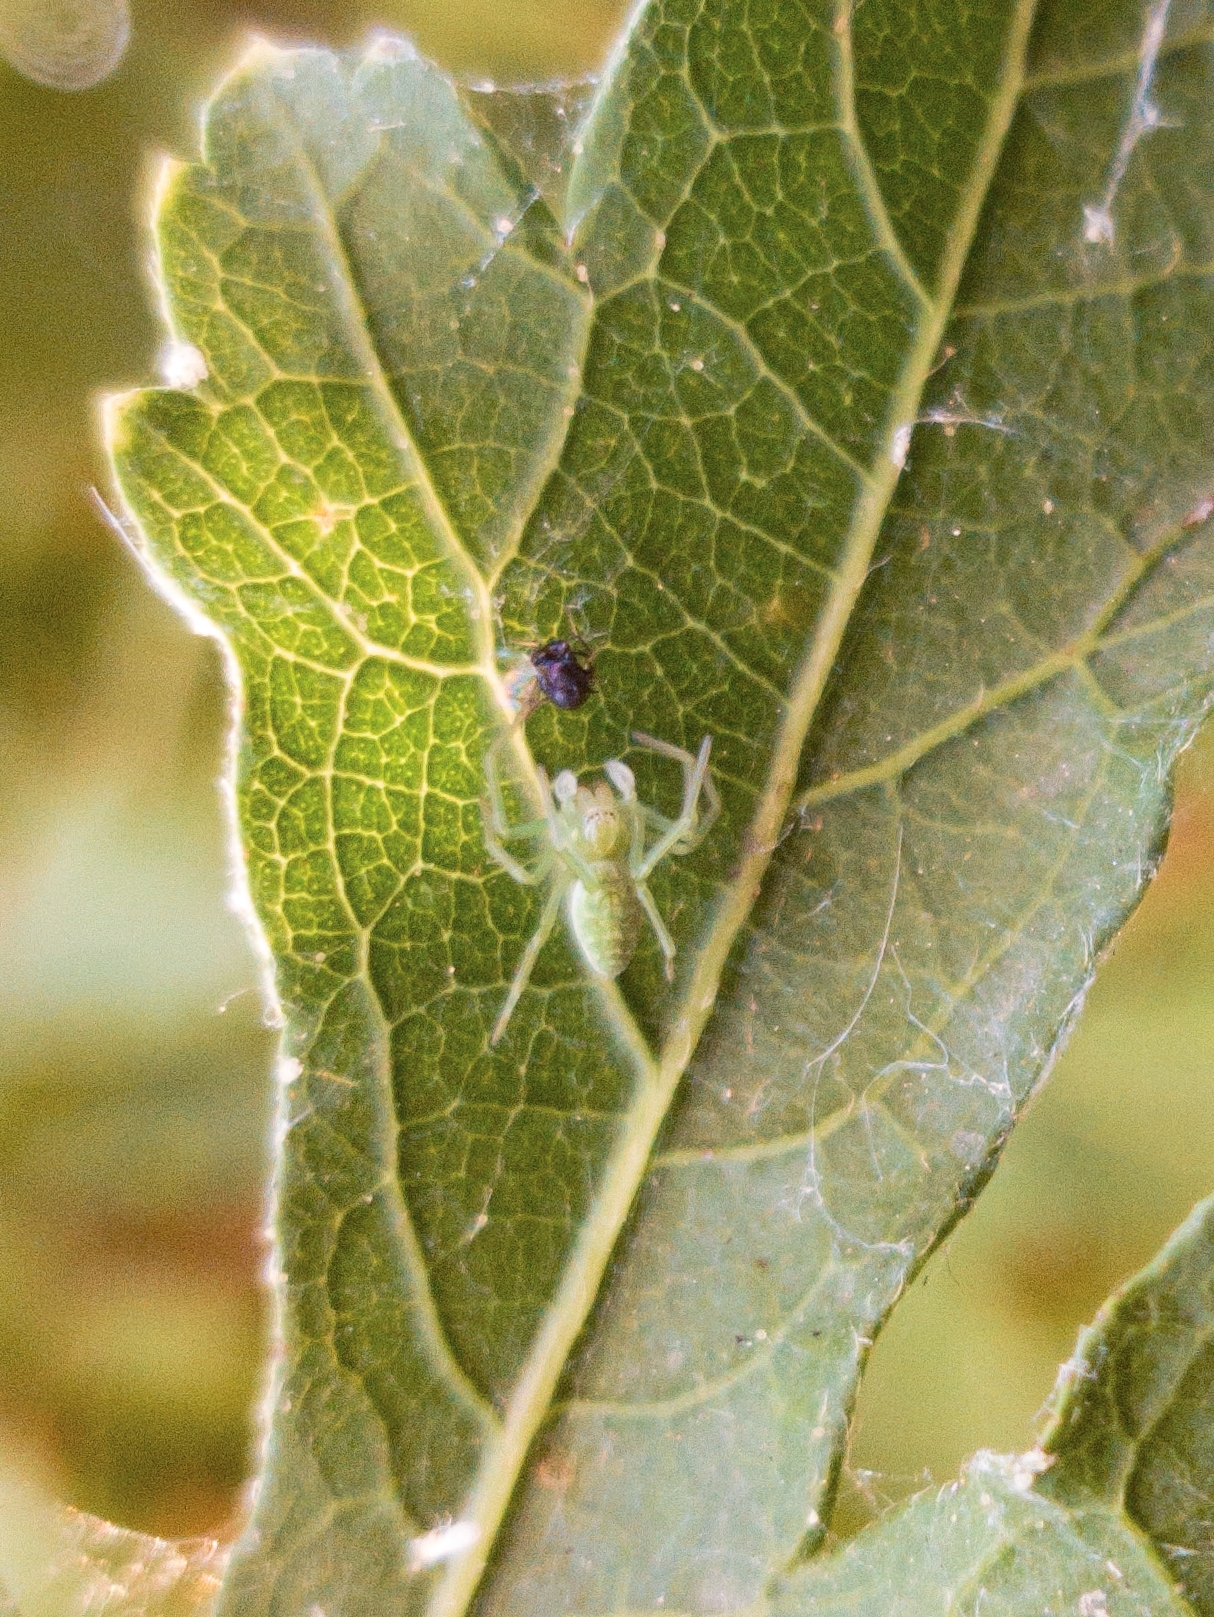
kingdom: Animalia
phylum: Arthropoda
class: Arachnida
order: Araneae
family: Dictynidae
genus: Nigma
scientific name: Nigma walckenaeri
